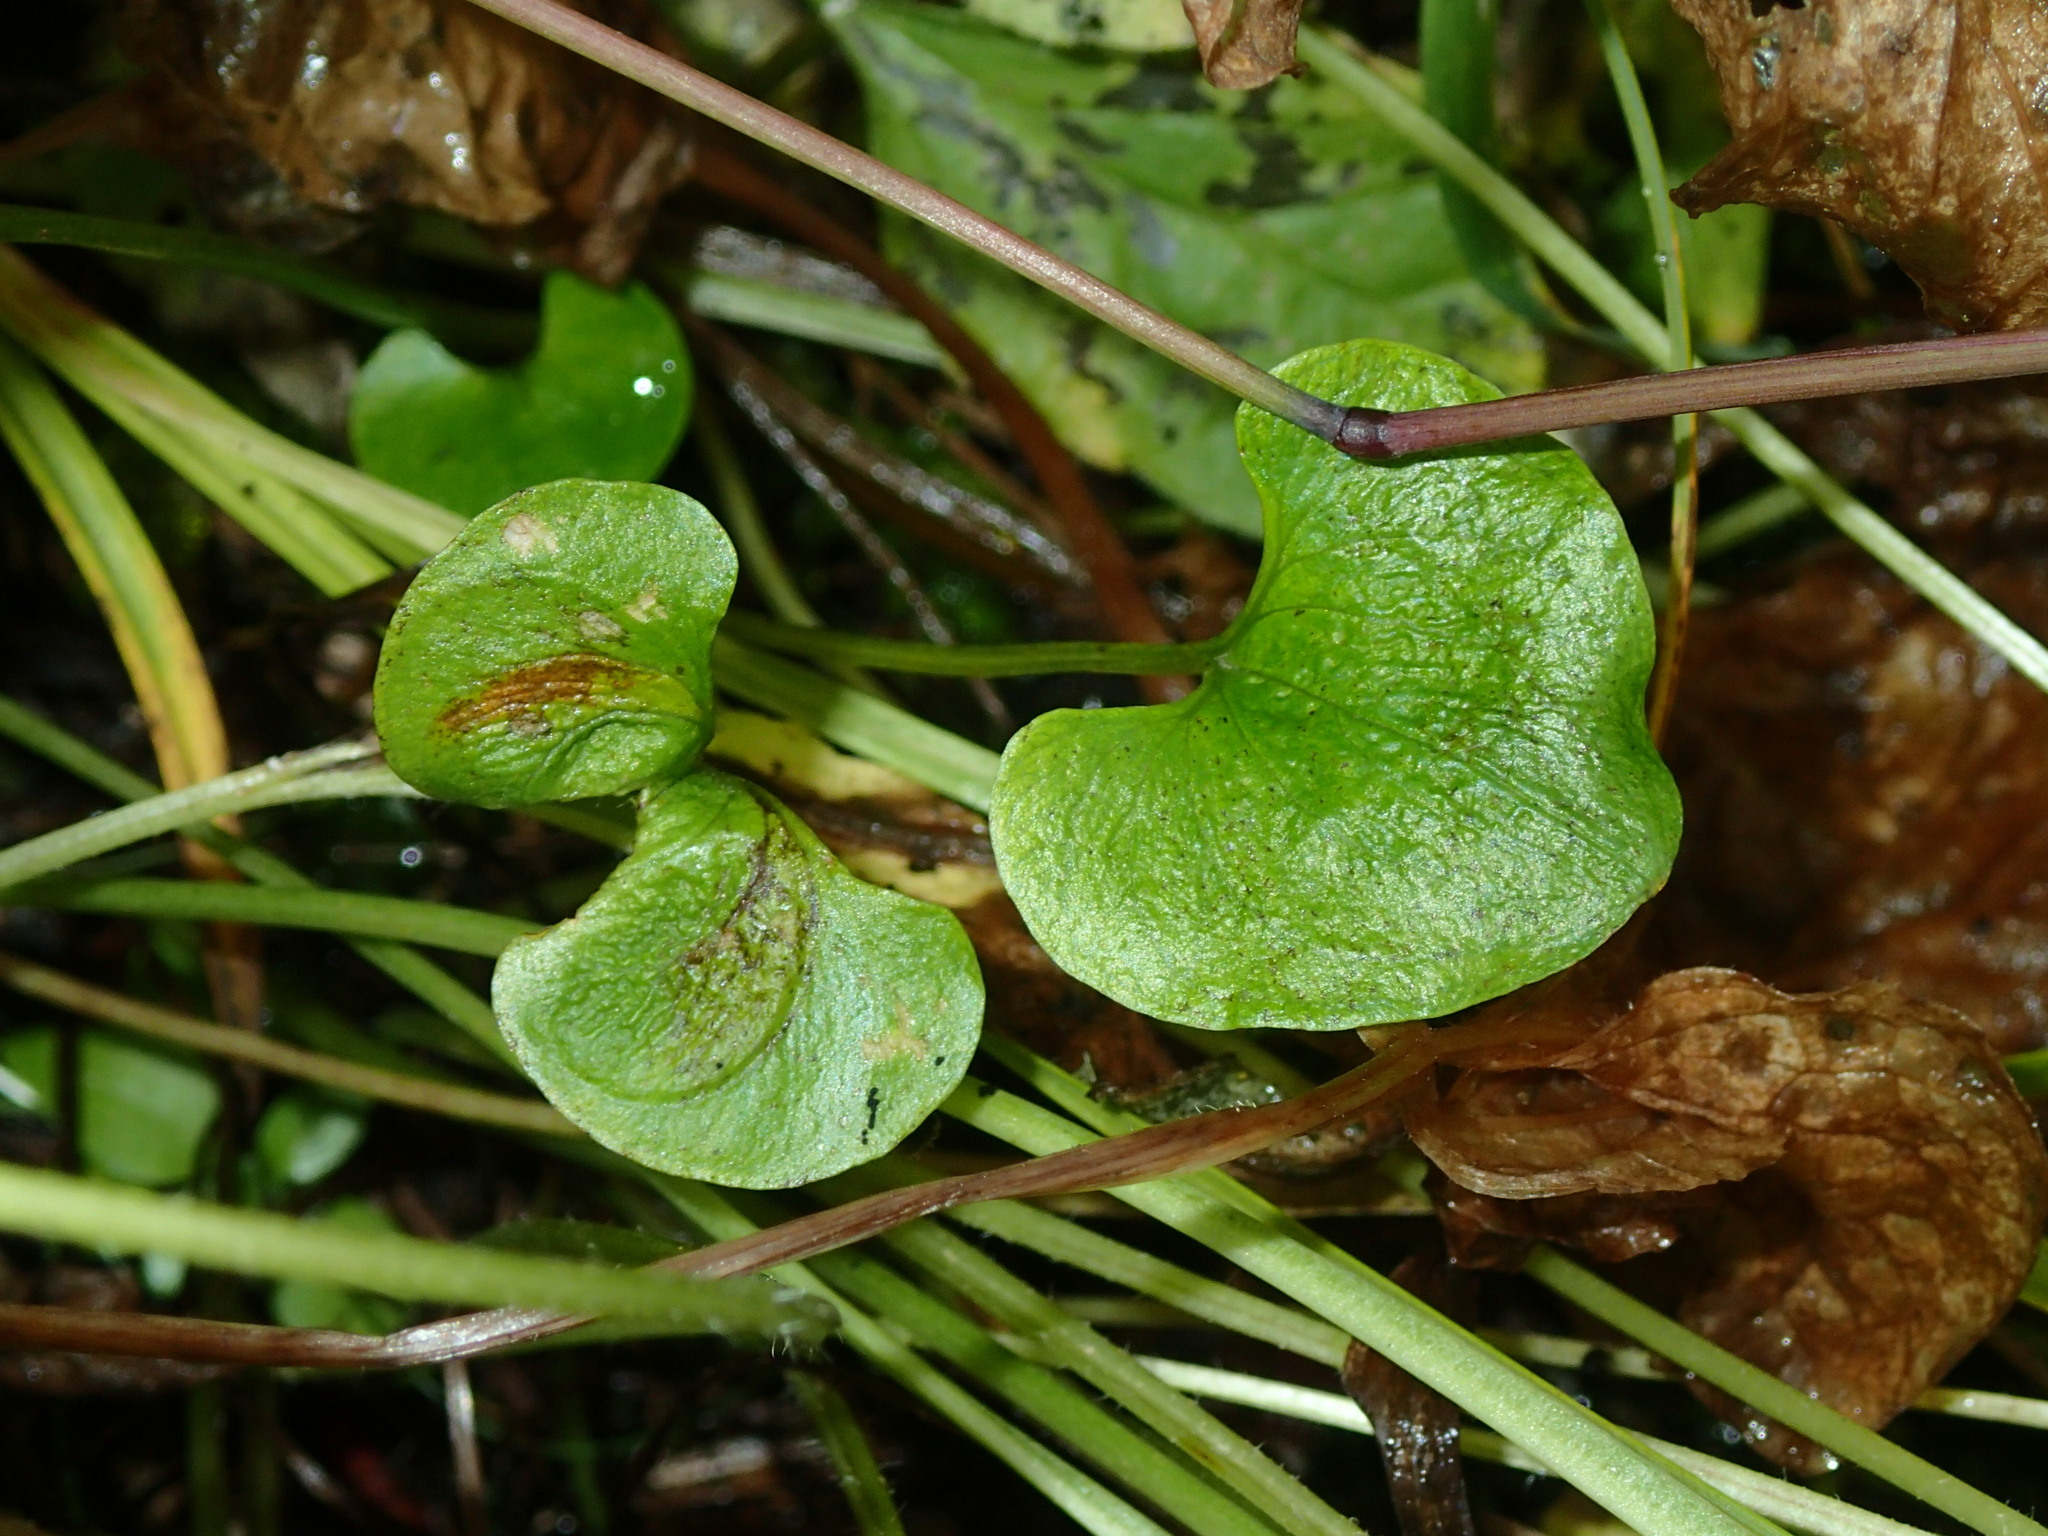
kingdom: Plantae
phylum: Tracheophyta
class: Magnoliopsida
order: Celastrales
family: Parnassiaceae
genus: Parnassia
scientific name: Parnassia fimbriata
